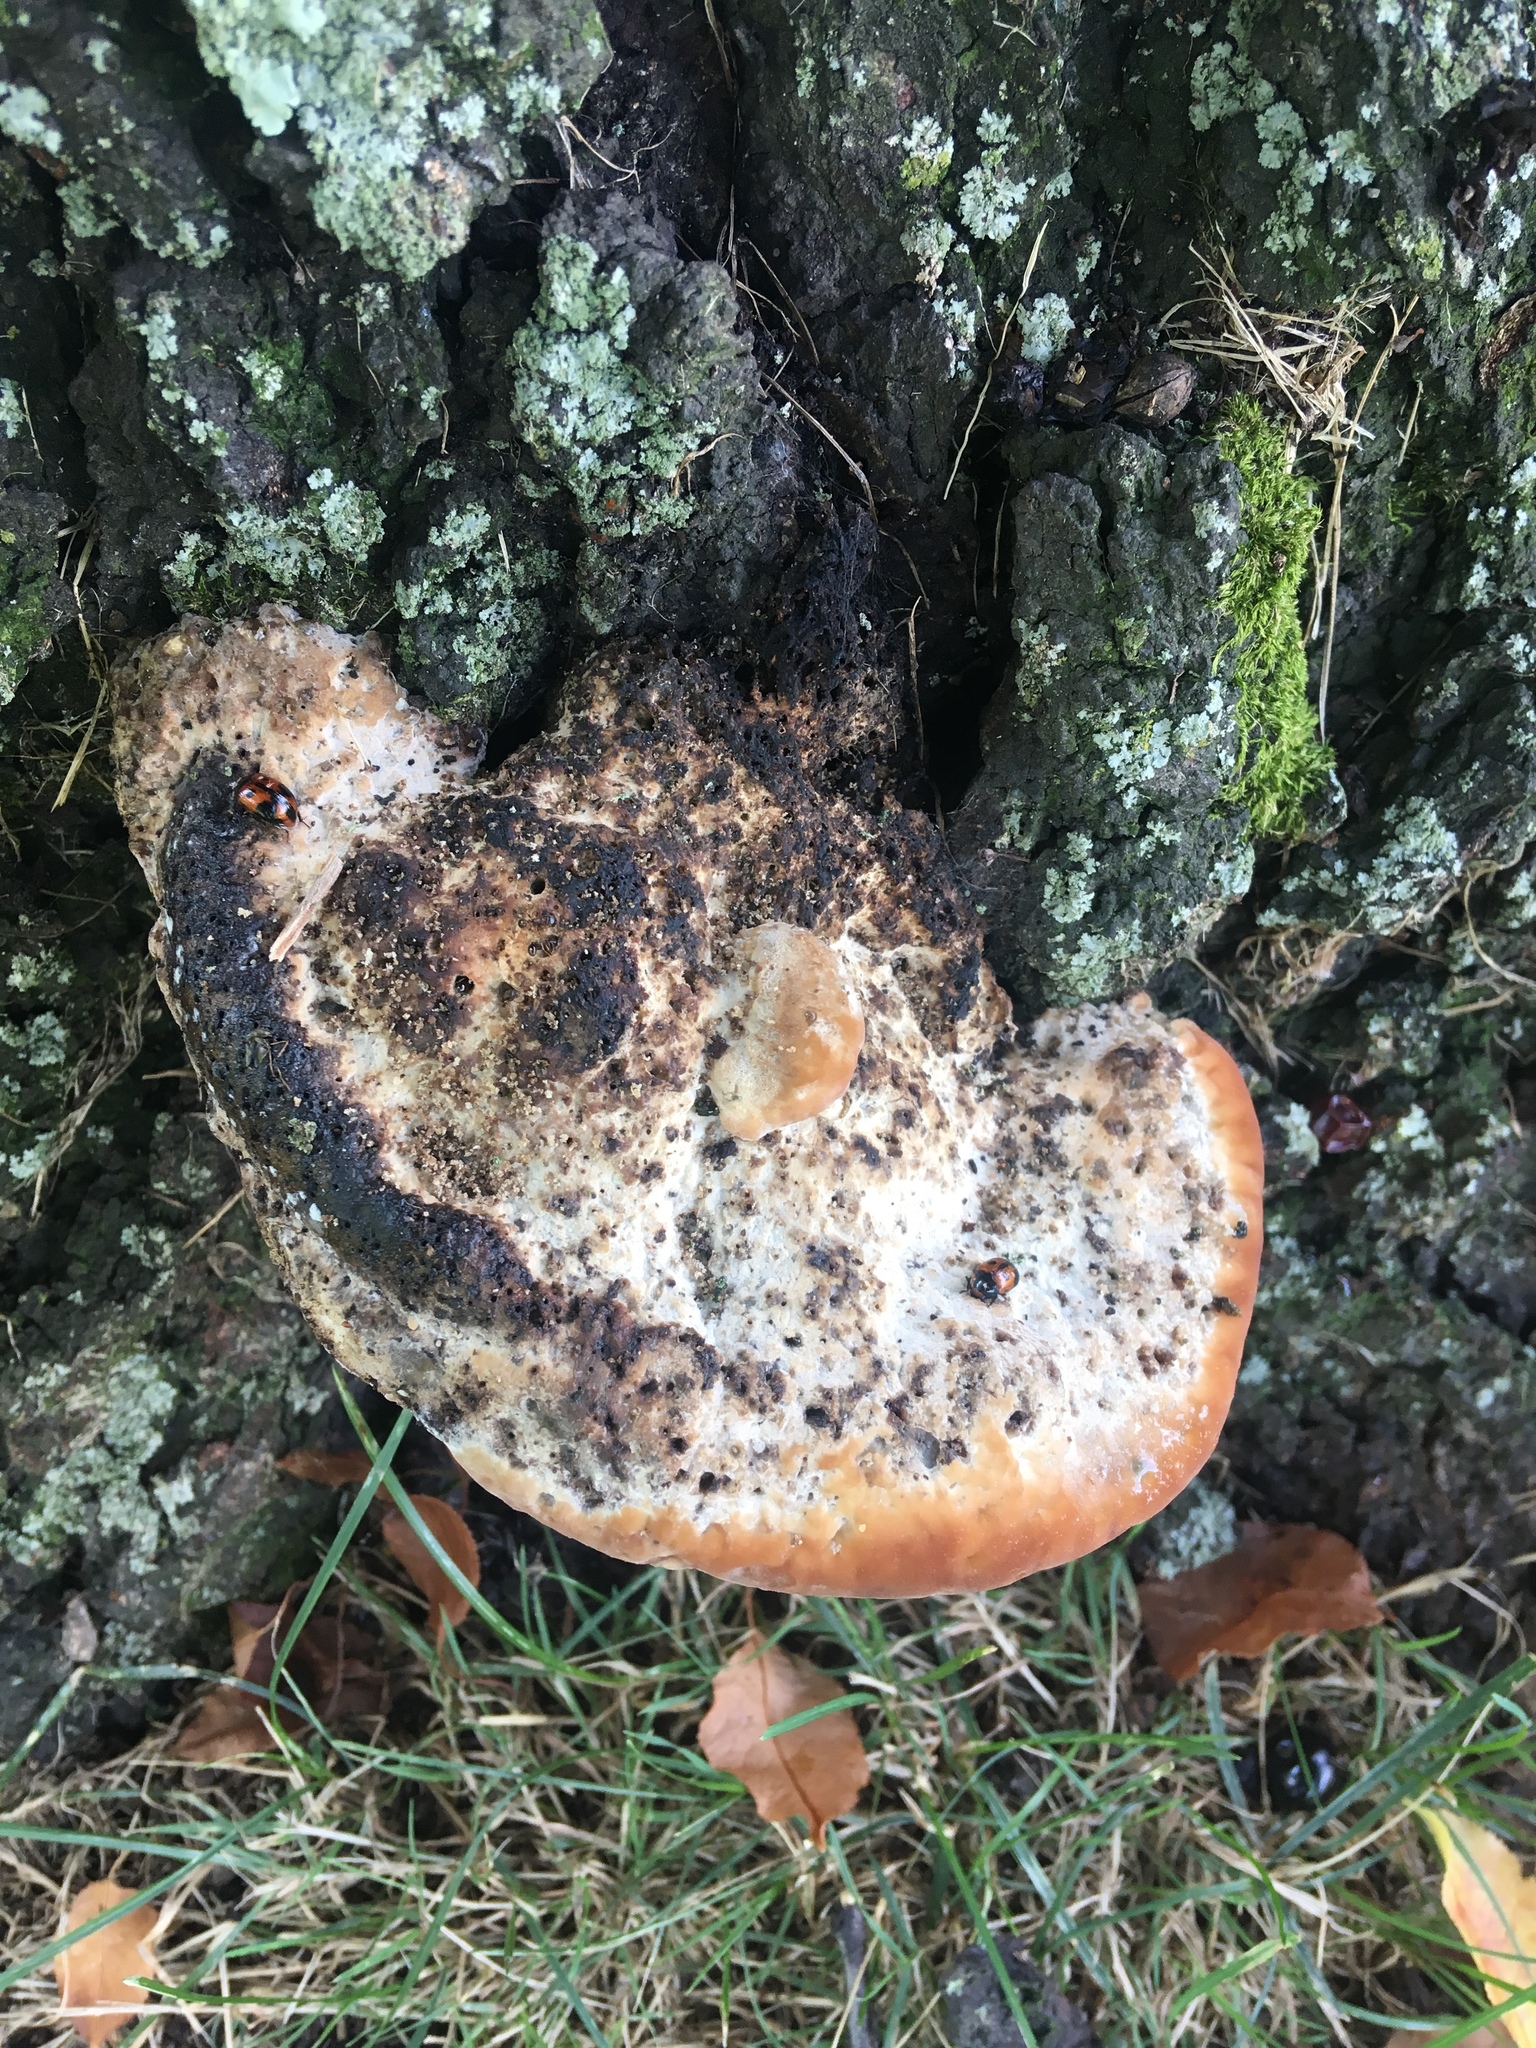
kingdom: Fungi
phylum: Basidiomycota
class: Agaricomycetes
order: Polyporales
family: Fomitopsidaceae
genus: Niveoporofomes
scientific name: Niveoporofomes spraguei
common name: Green cheese polypore
